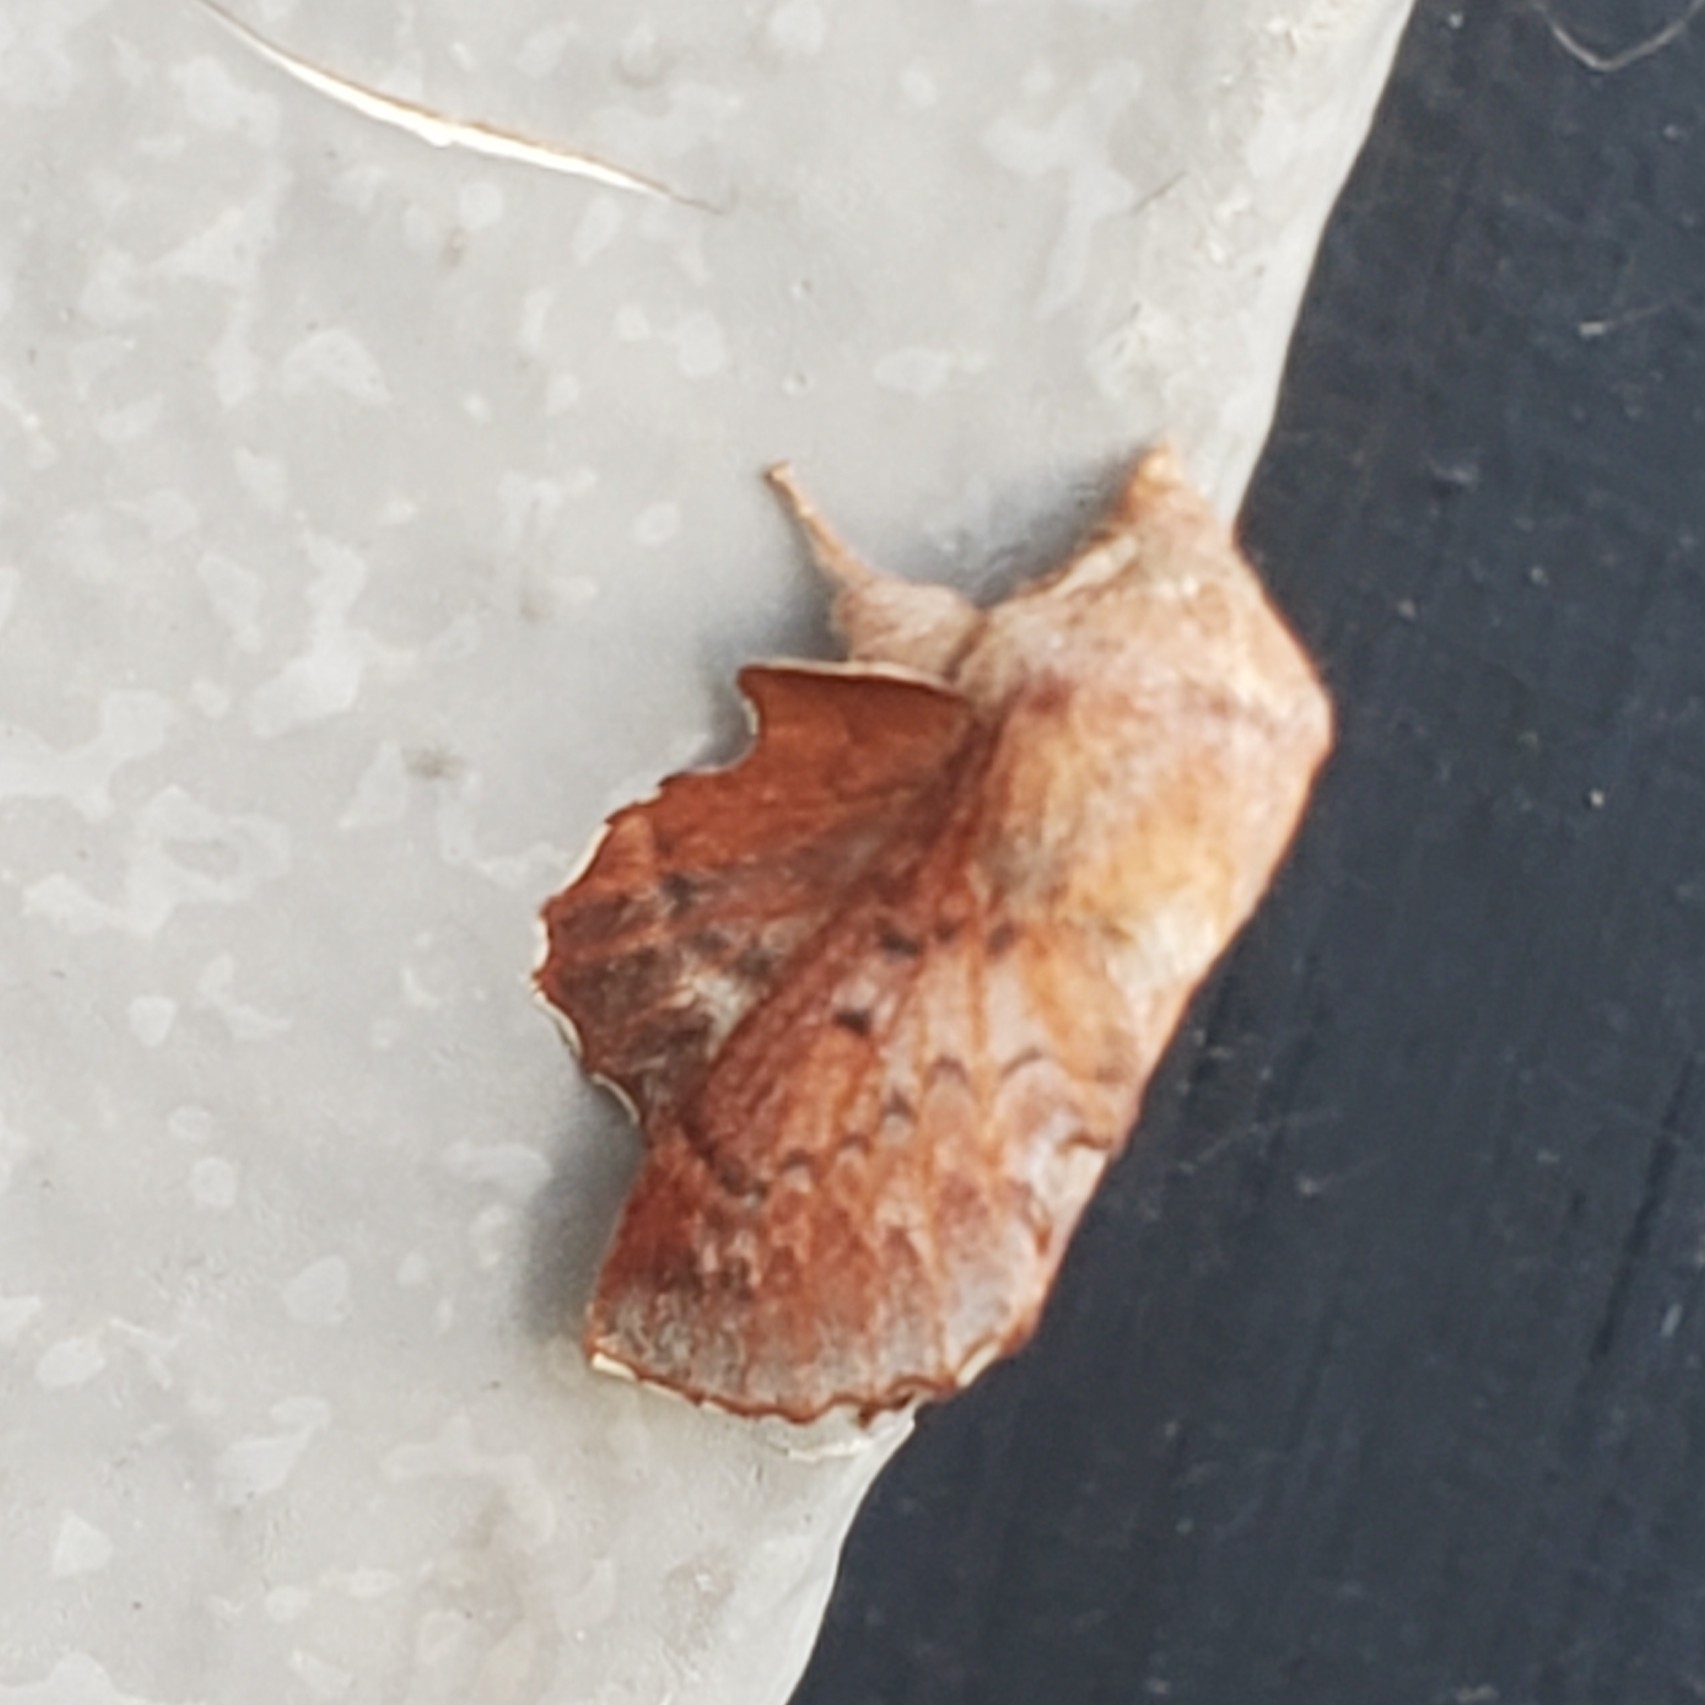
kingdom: Animalia
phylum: Arthropoda
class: Insecta
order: Lepidoptera
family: Lasiocampidae
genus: Phyllodesma
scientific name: Phyllodesma americana
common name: American lappet moth
